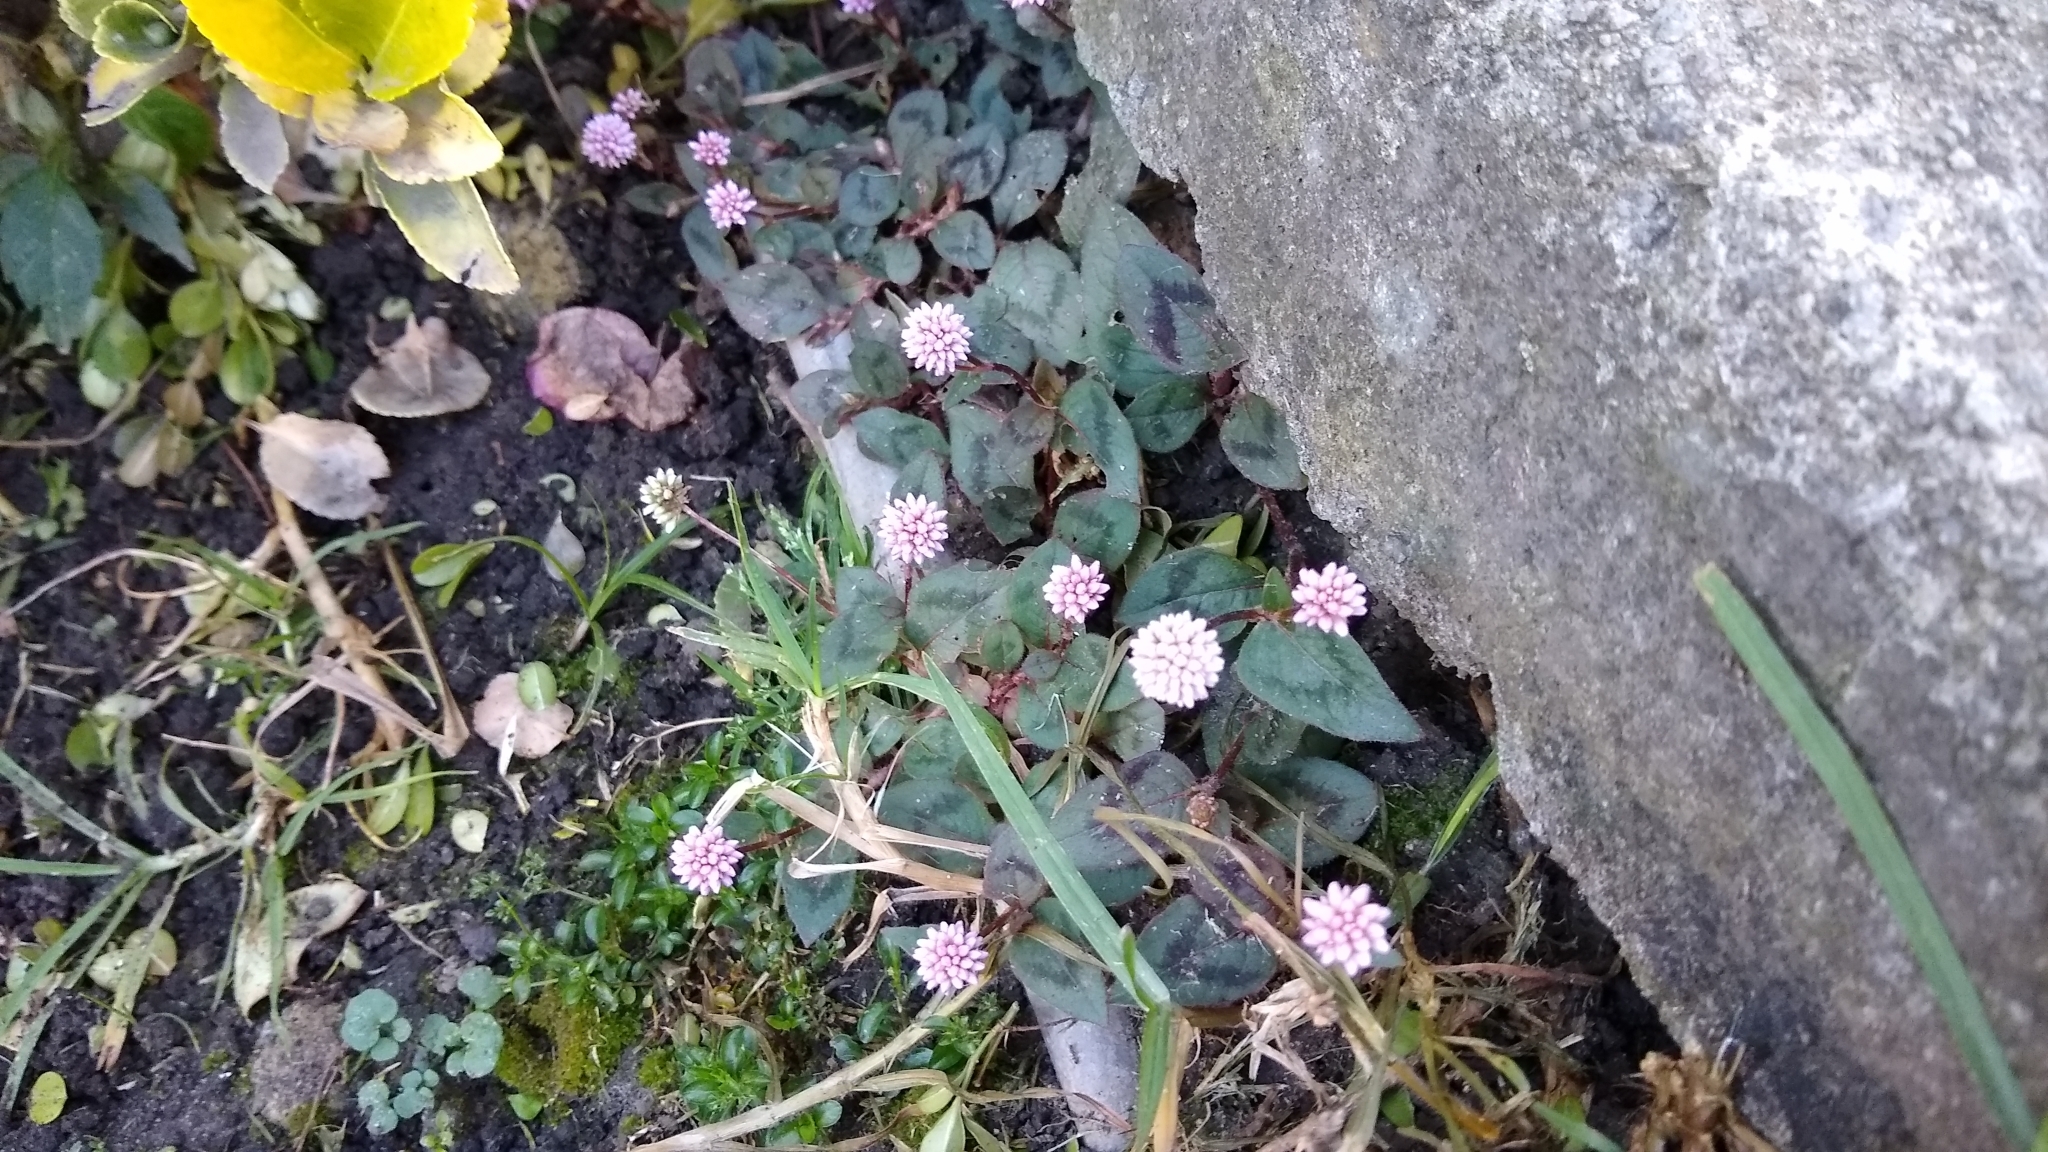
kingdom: Plantae
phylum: Tracheophyta
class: Magnoliopsida
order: Caryophyllales
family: Polygonaceae
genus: Persicaria
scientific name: Persicaria capitata
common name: Pinkhead smartweed
